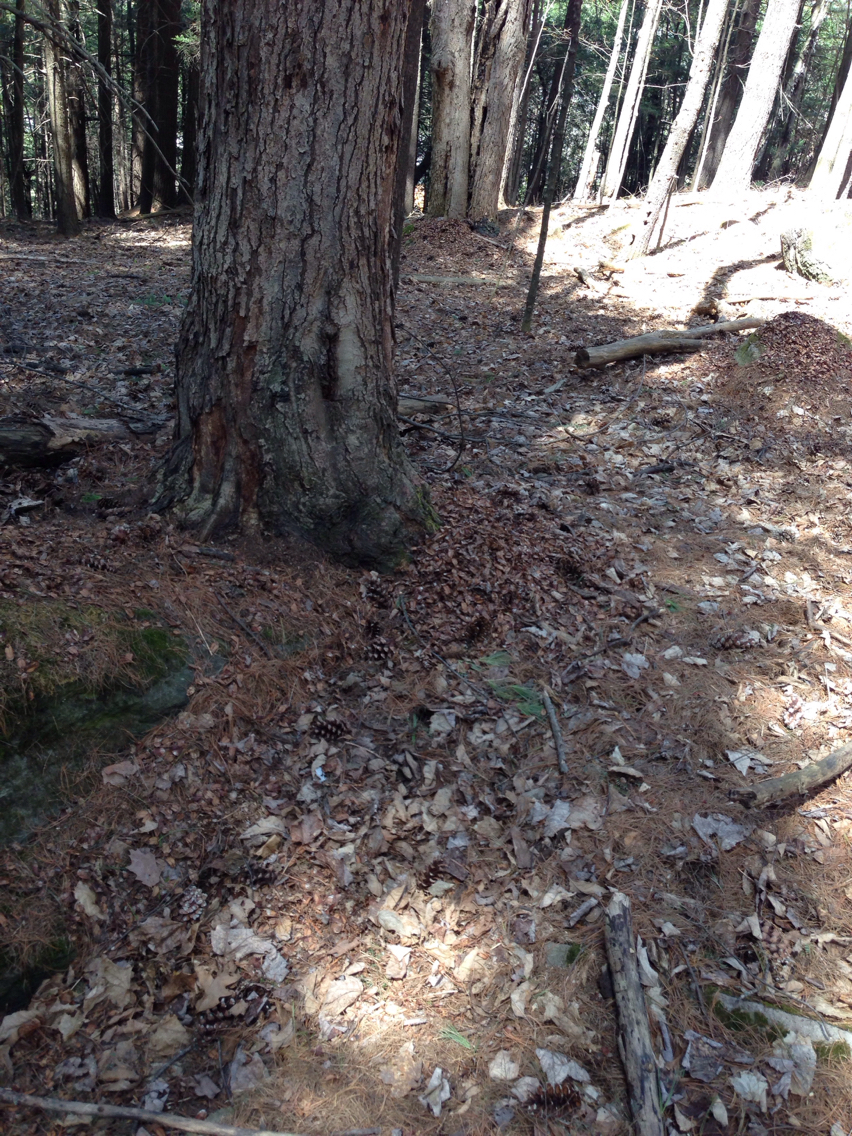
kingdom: Animalia
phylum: Chordata
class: Mammalia
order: Rodentia
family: Sciuridae
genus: Tamiasciurus
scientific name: Tamiasciurus hudsonicus
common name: Red squirrel
